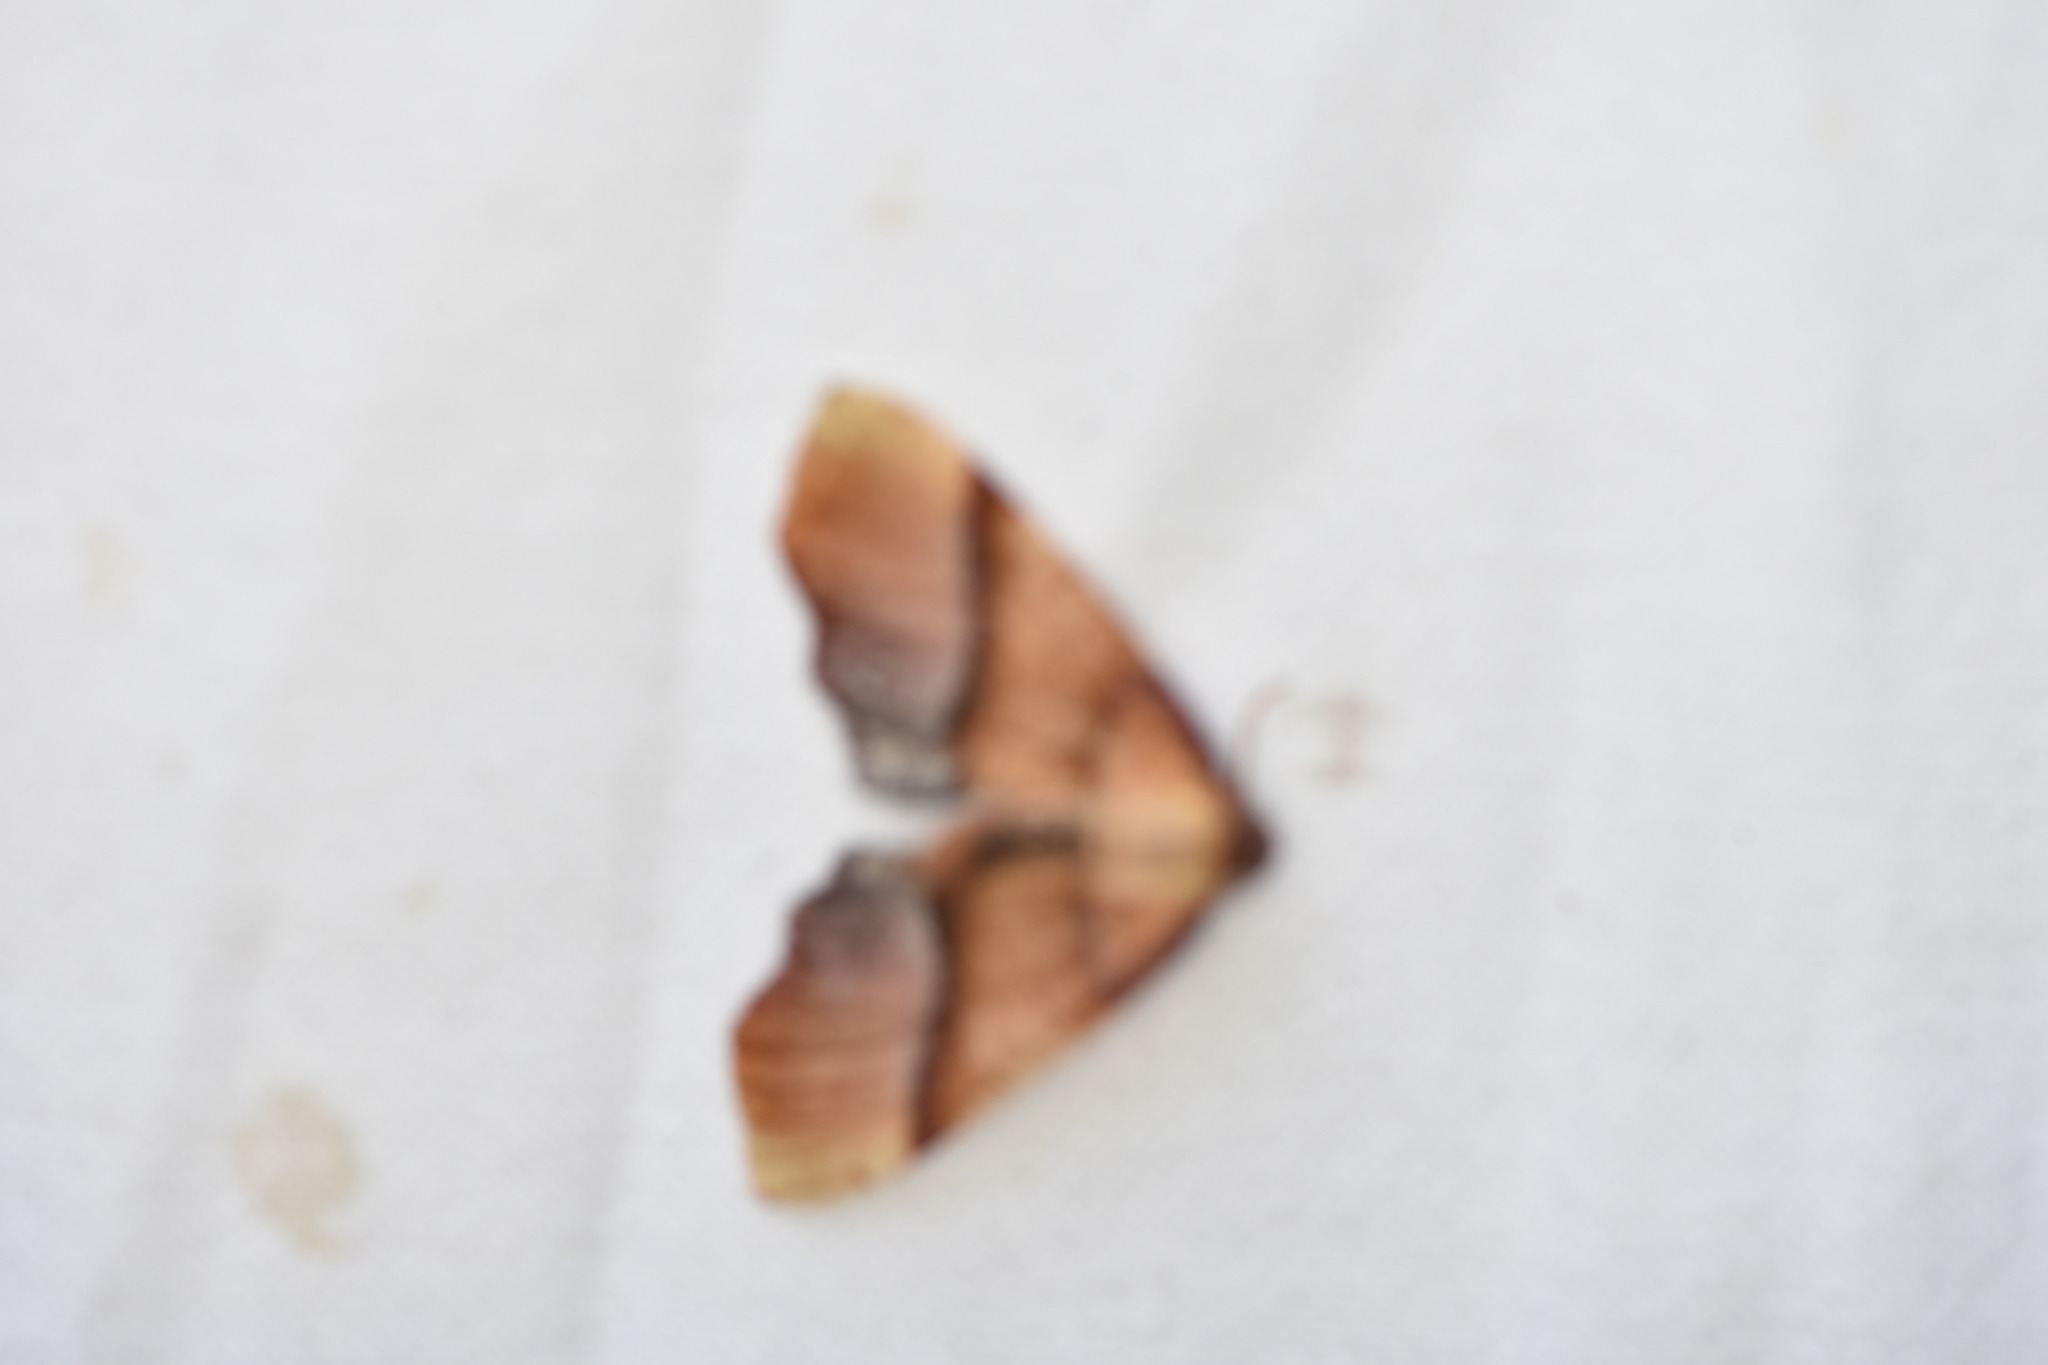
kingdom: Animalia
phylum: Arthropoda
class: Insecta
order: Lepidoptera
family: Geometridae
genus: Plagodis
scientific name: Plagodis phlogosaria
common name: Straight-lined plagodis
